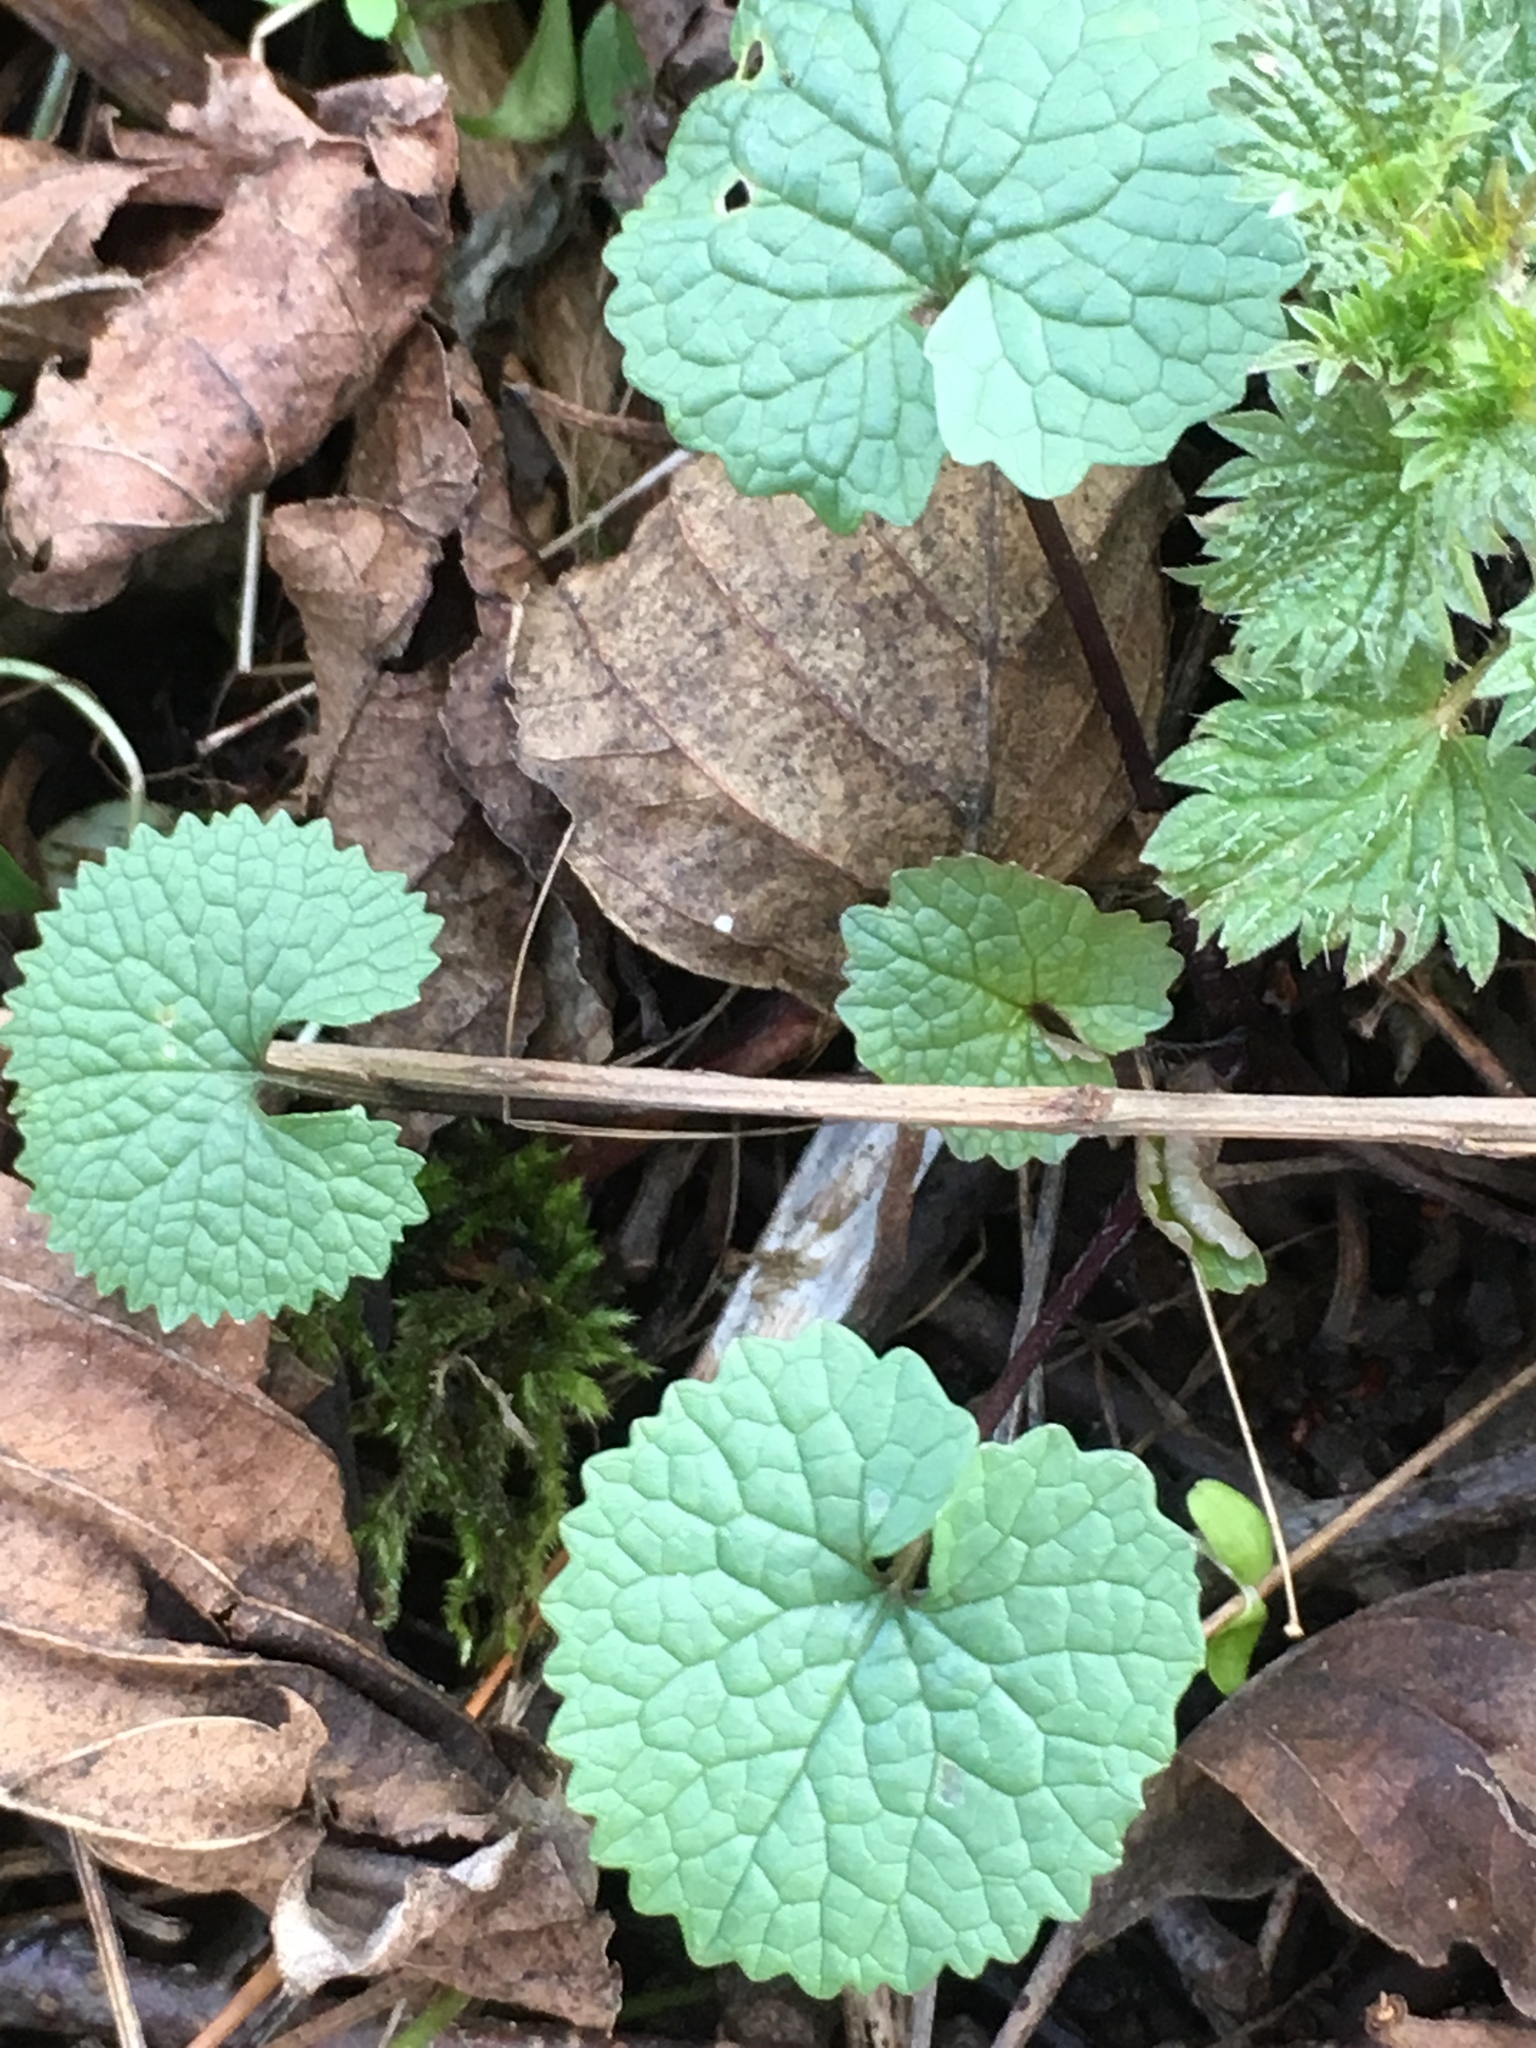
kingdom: Plantae
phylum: Tracheophyta
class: Magnoliopsida
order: Brassicales
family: Brassicaceae
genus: Alliaria
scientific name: Alliaria petiolata
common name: Garlic mustard
